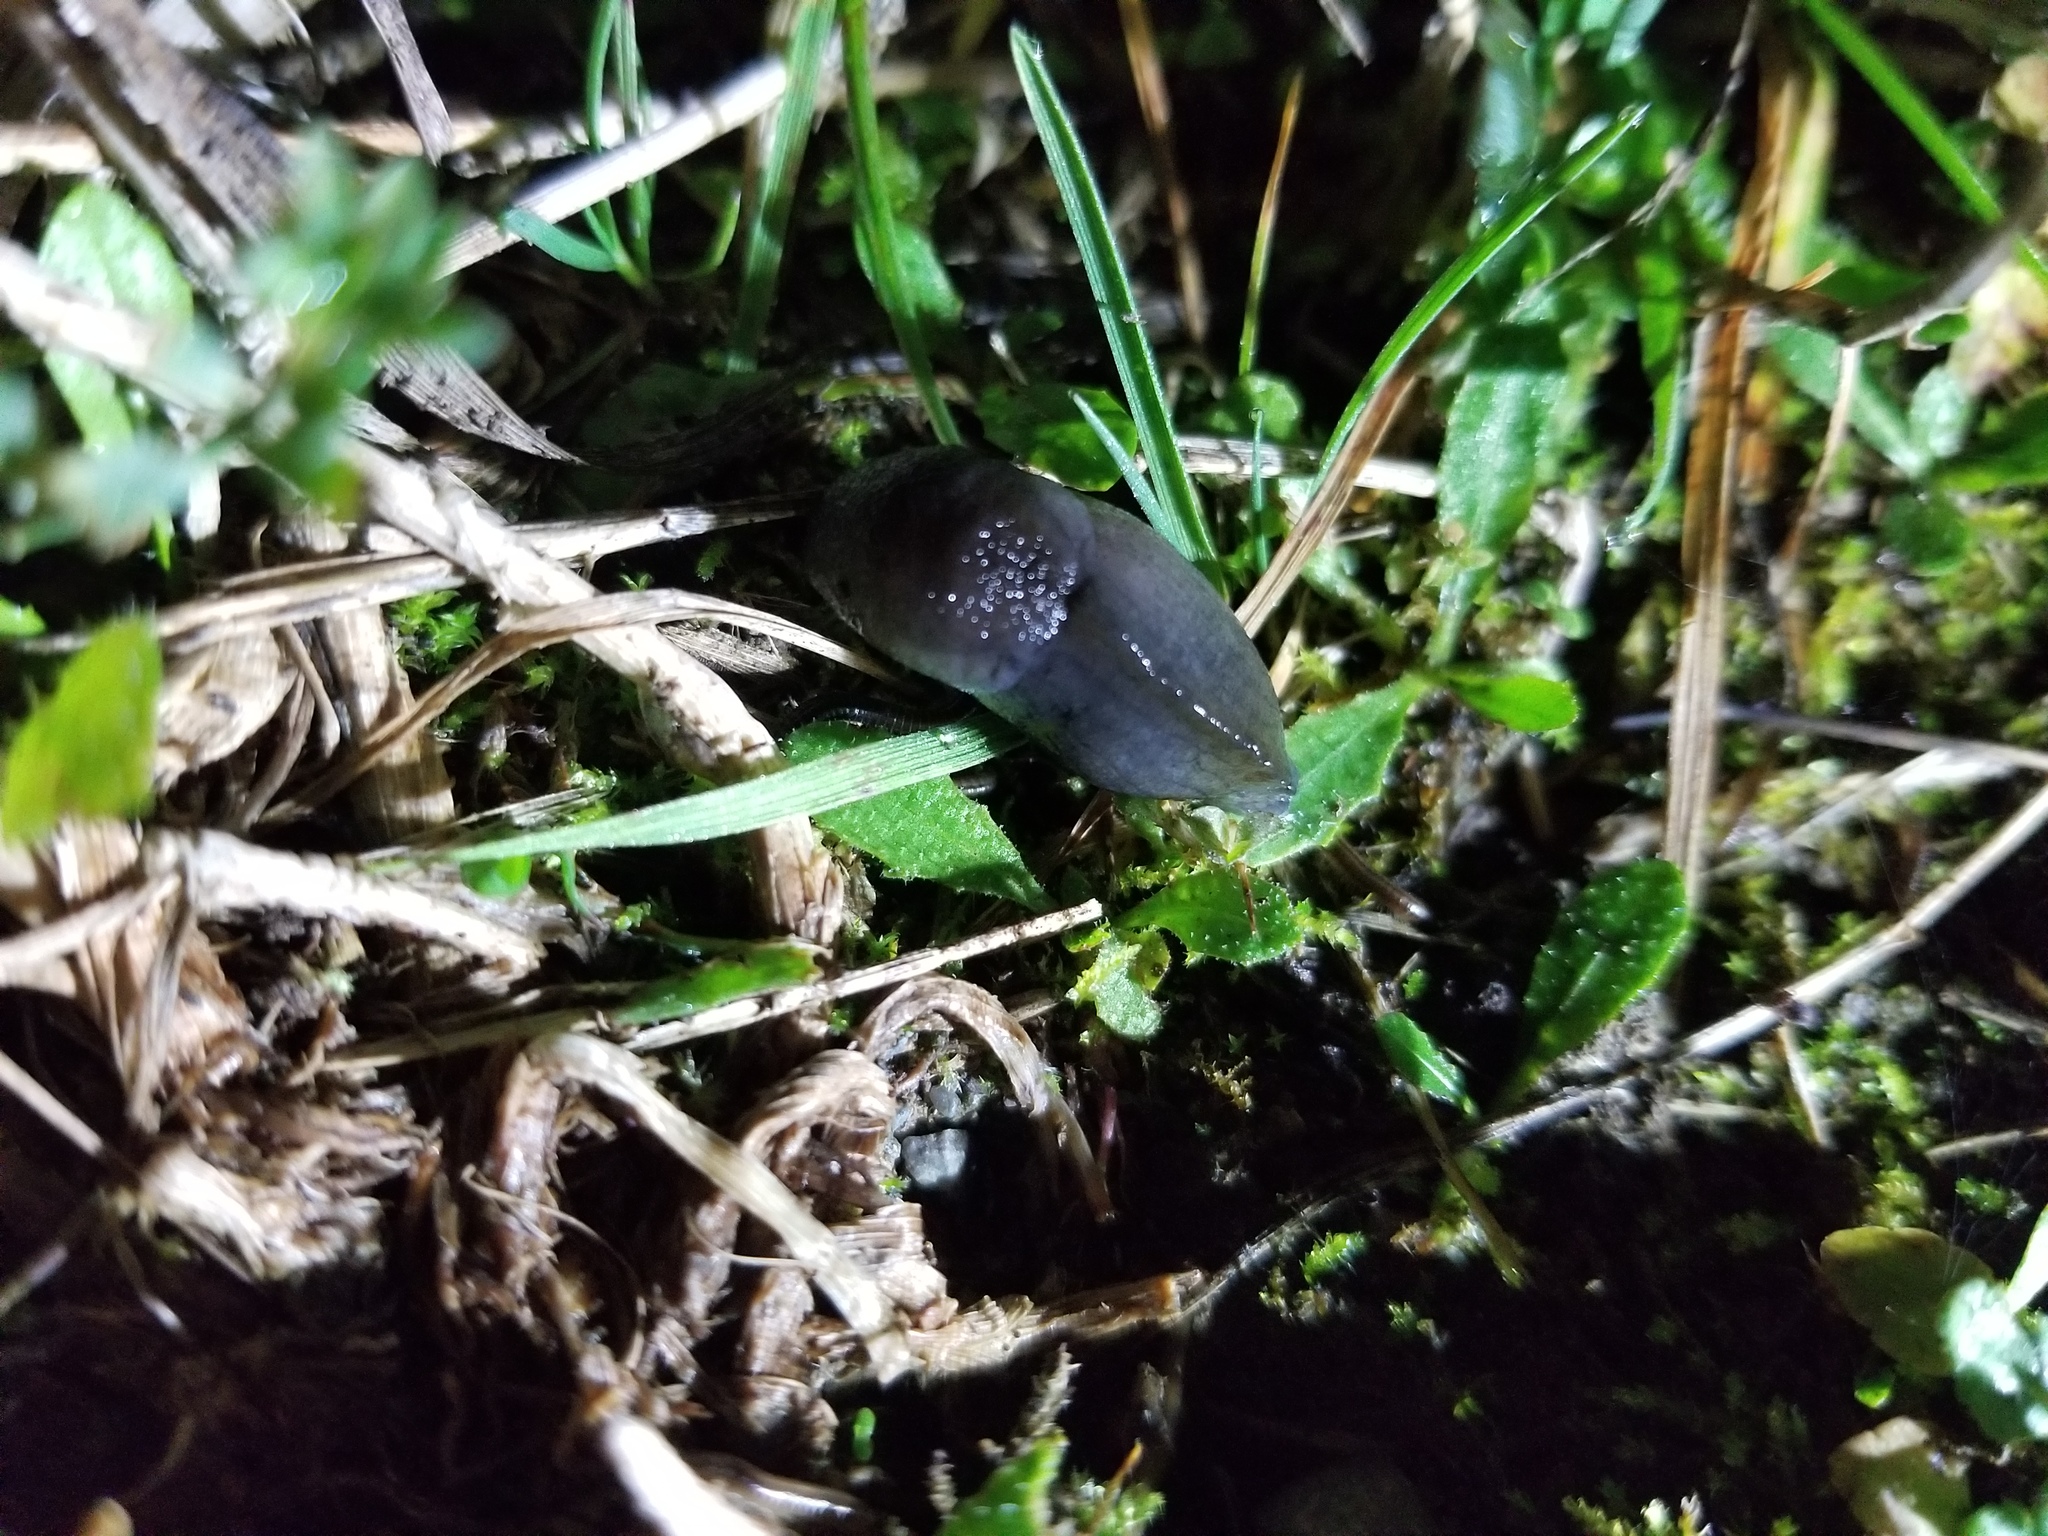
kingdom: Animalia
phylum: Mollusca
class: Gastropoda
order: Stylommatophora
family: Milacidae
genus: Milax
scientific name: Milax gagates
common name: Greenhouse slug
